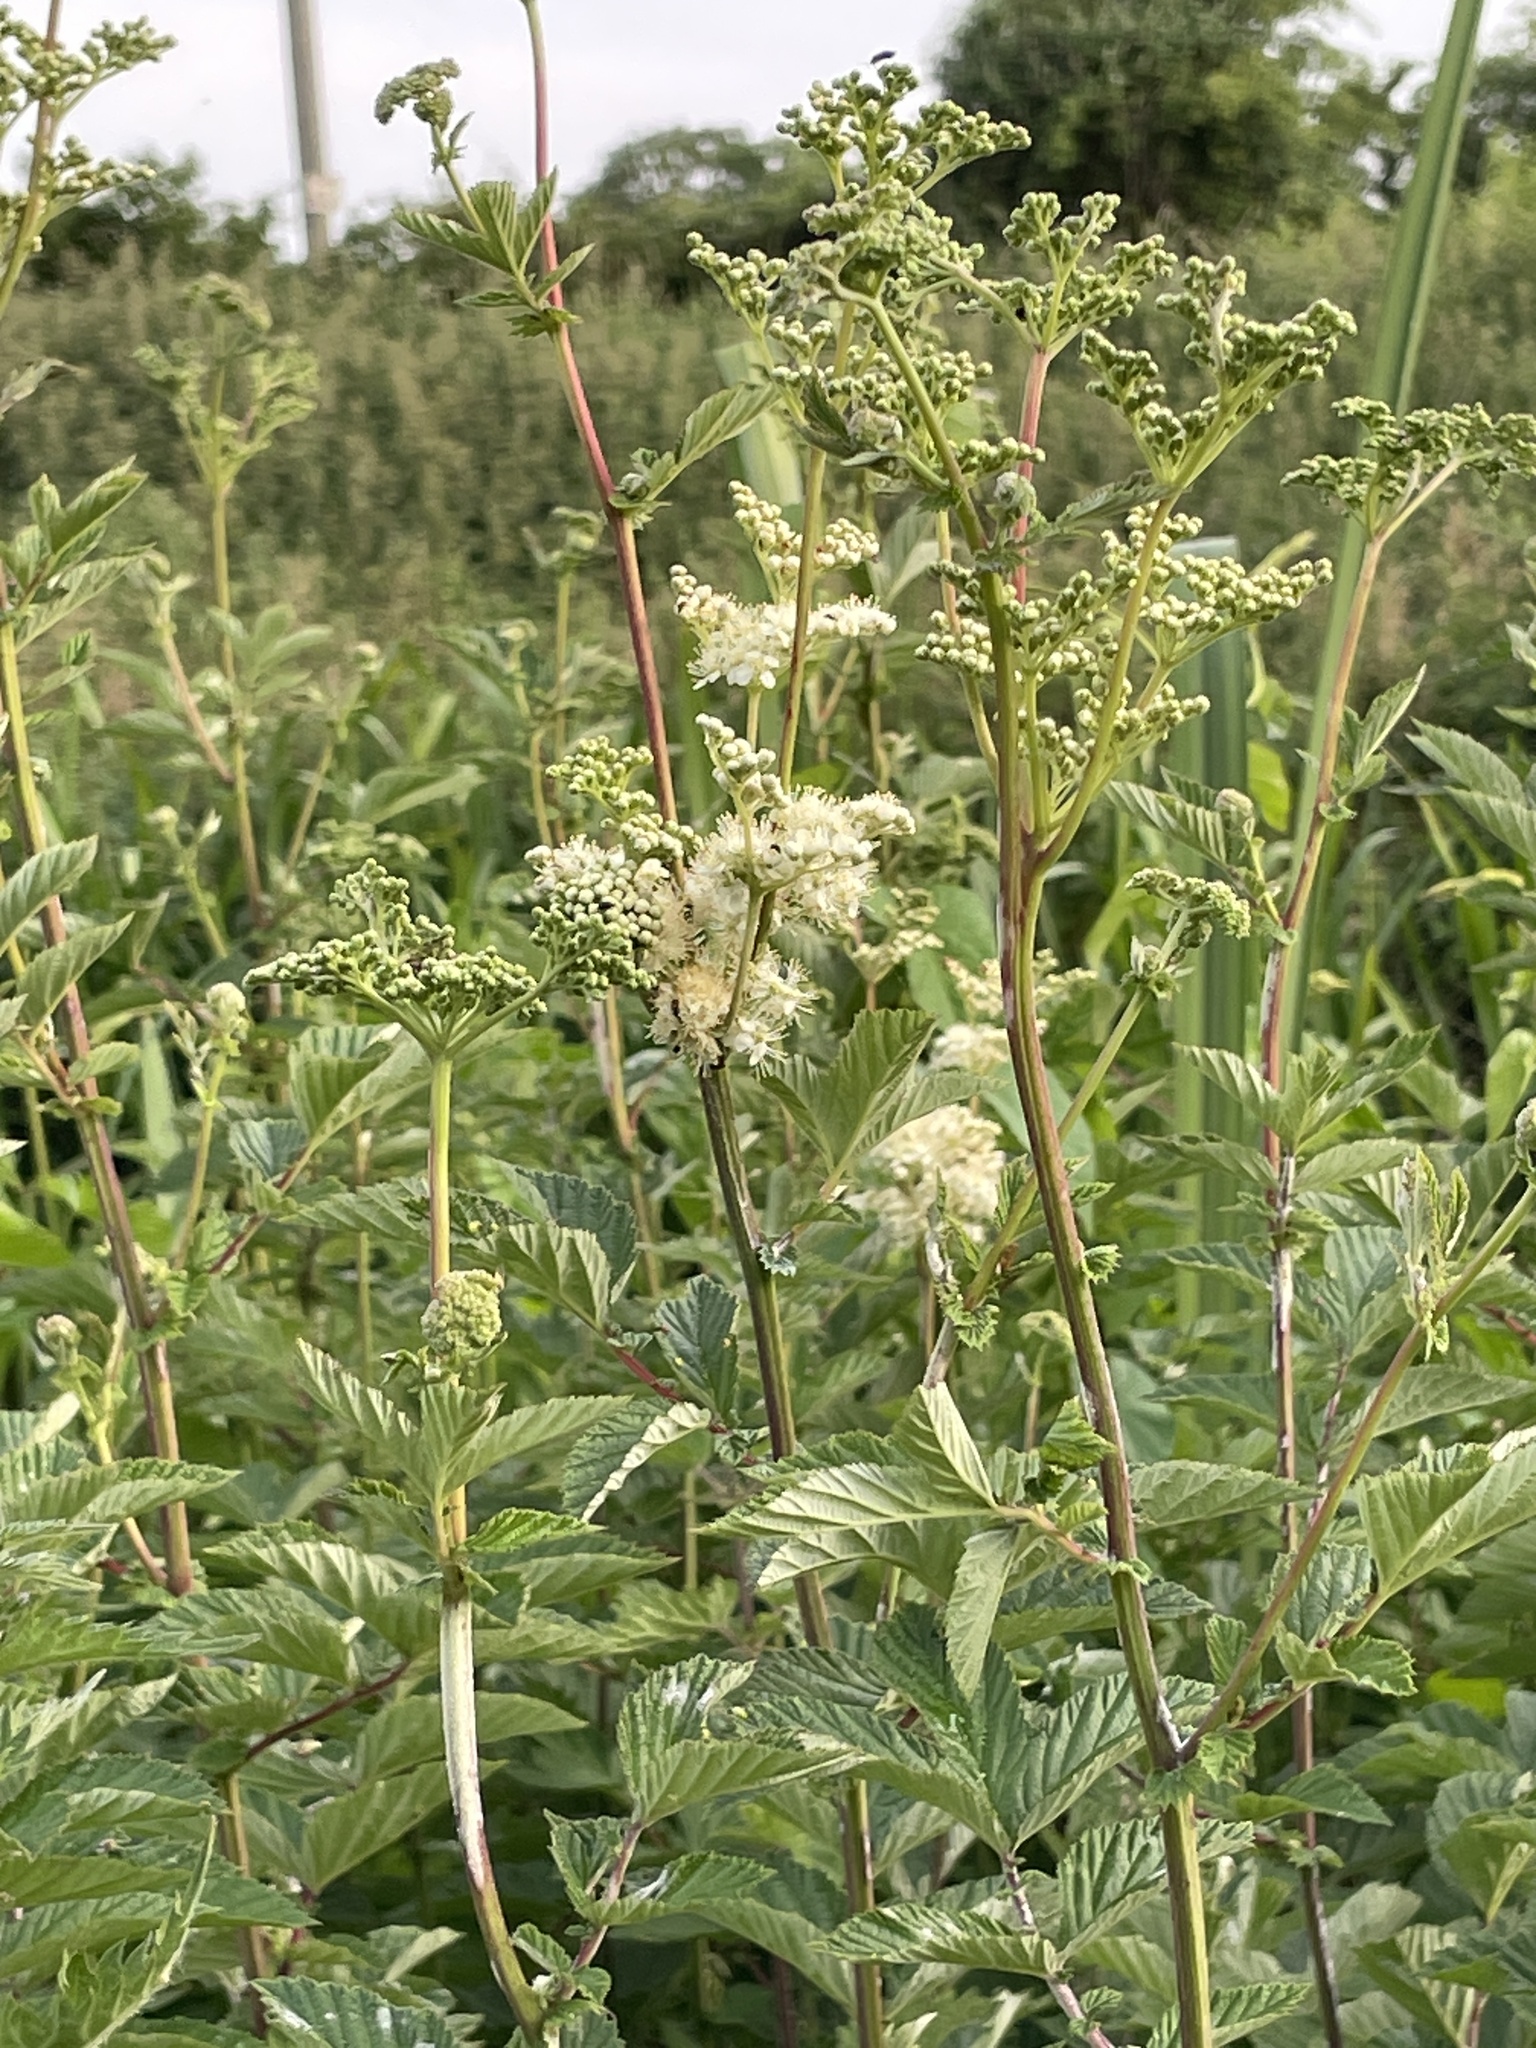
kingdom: Plantae
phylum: Tracheophyta
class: Magnoliopsida
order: Rosales
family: Rosaceae
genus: Filipendula
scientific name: Filipendula ulmaria
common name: Meadowsweet
